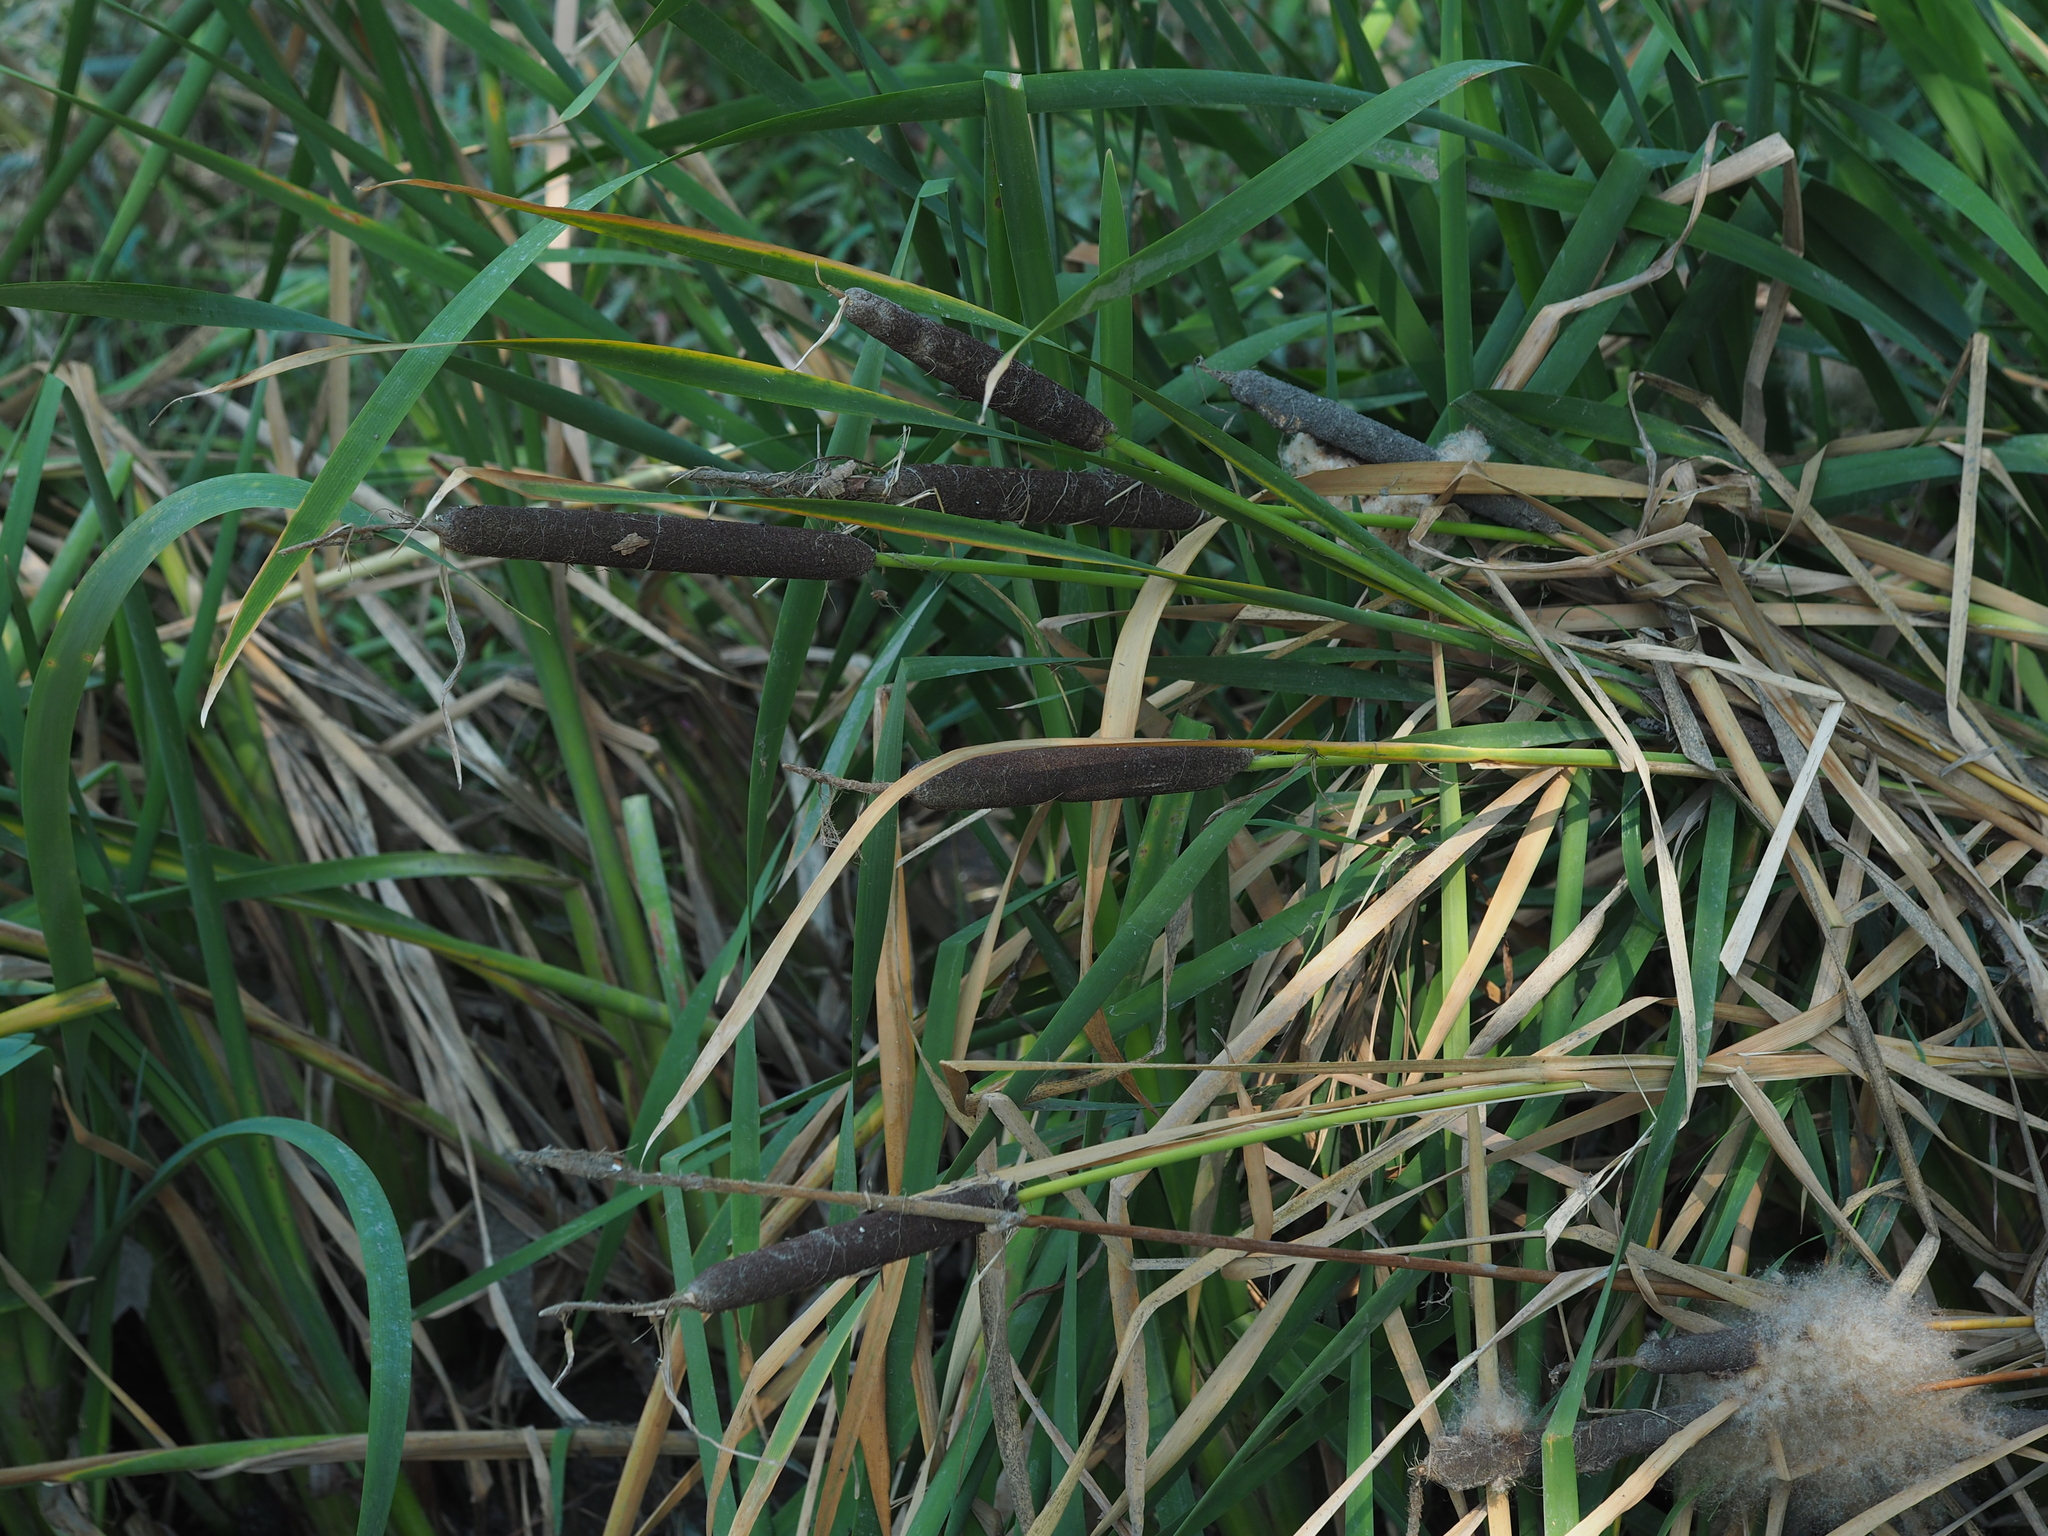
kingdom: Plantae
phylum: Tracheophyta
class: Liliopsida
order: Poales
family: Typhaceae
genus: Typha
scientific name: Typha latifolia
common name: Broadleaf cattail
